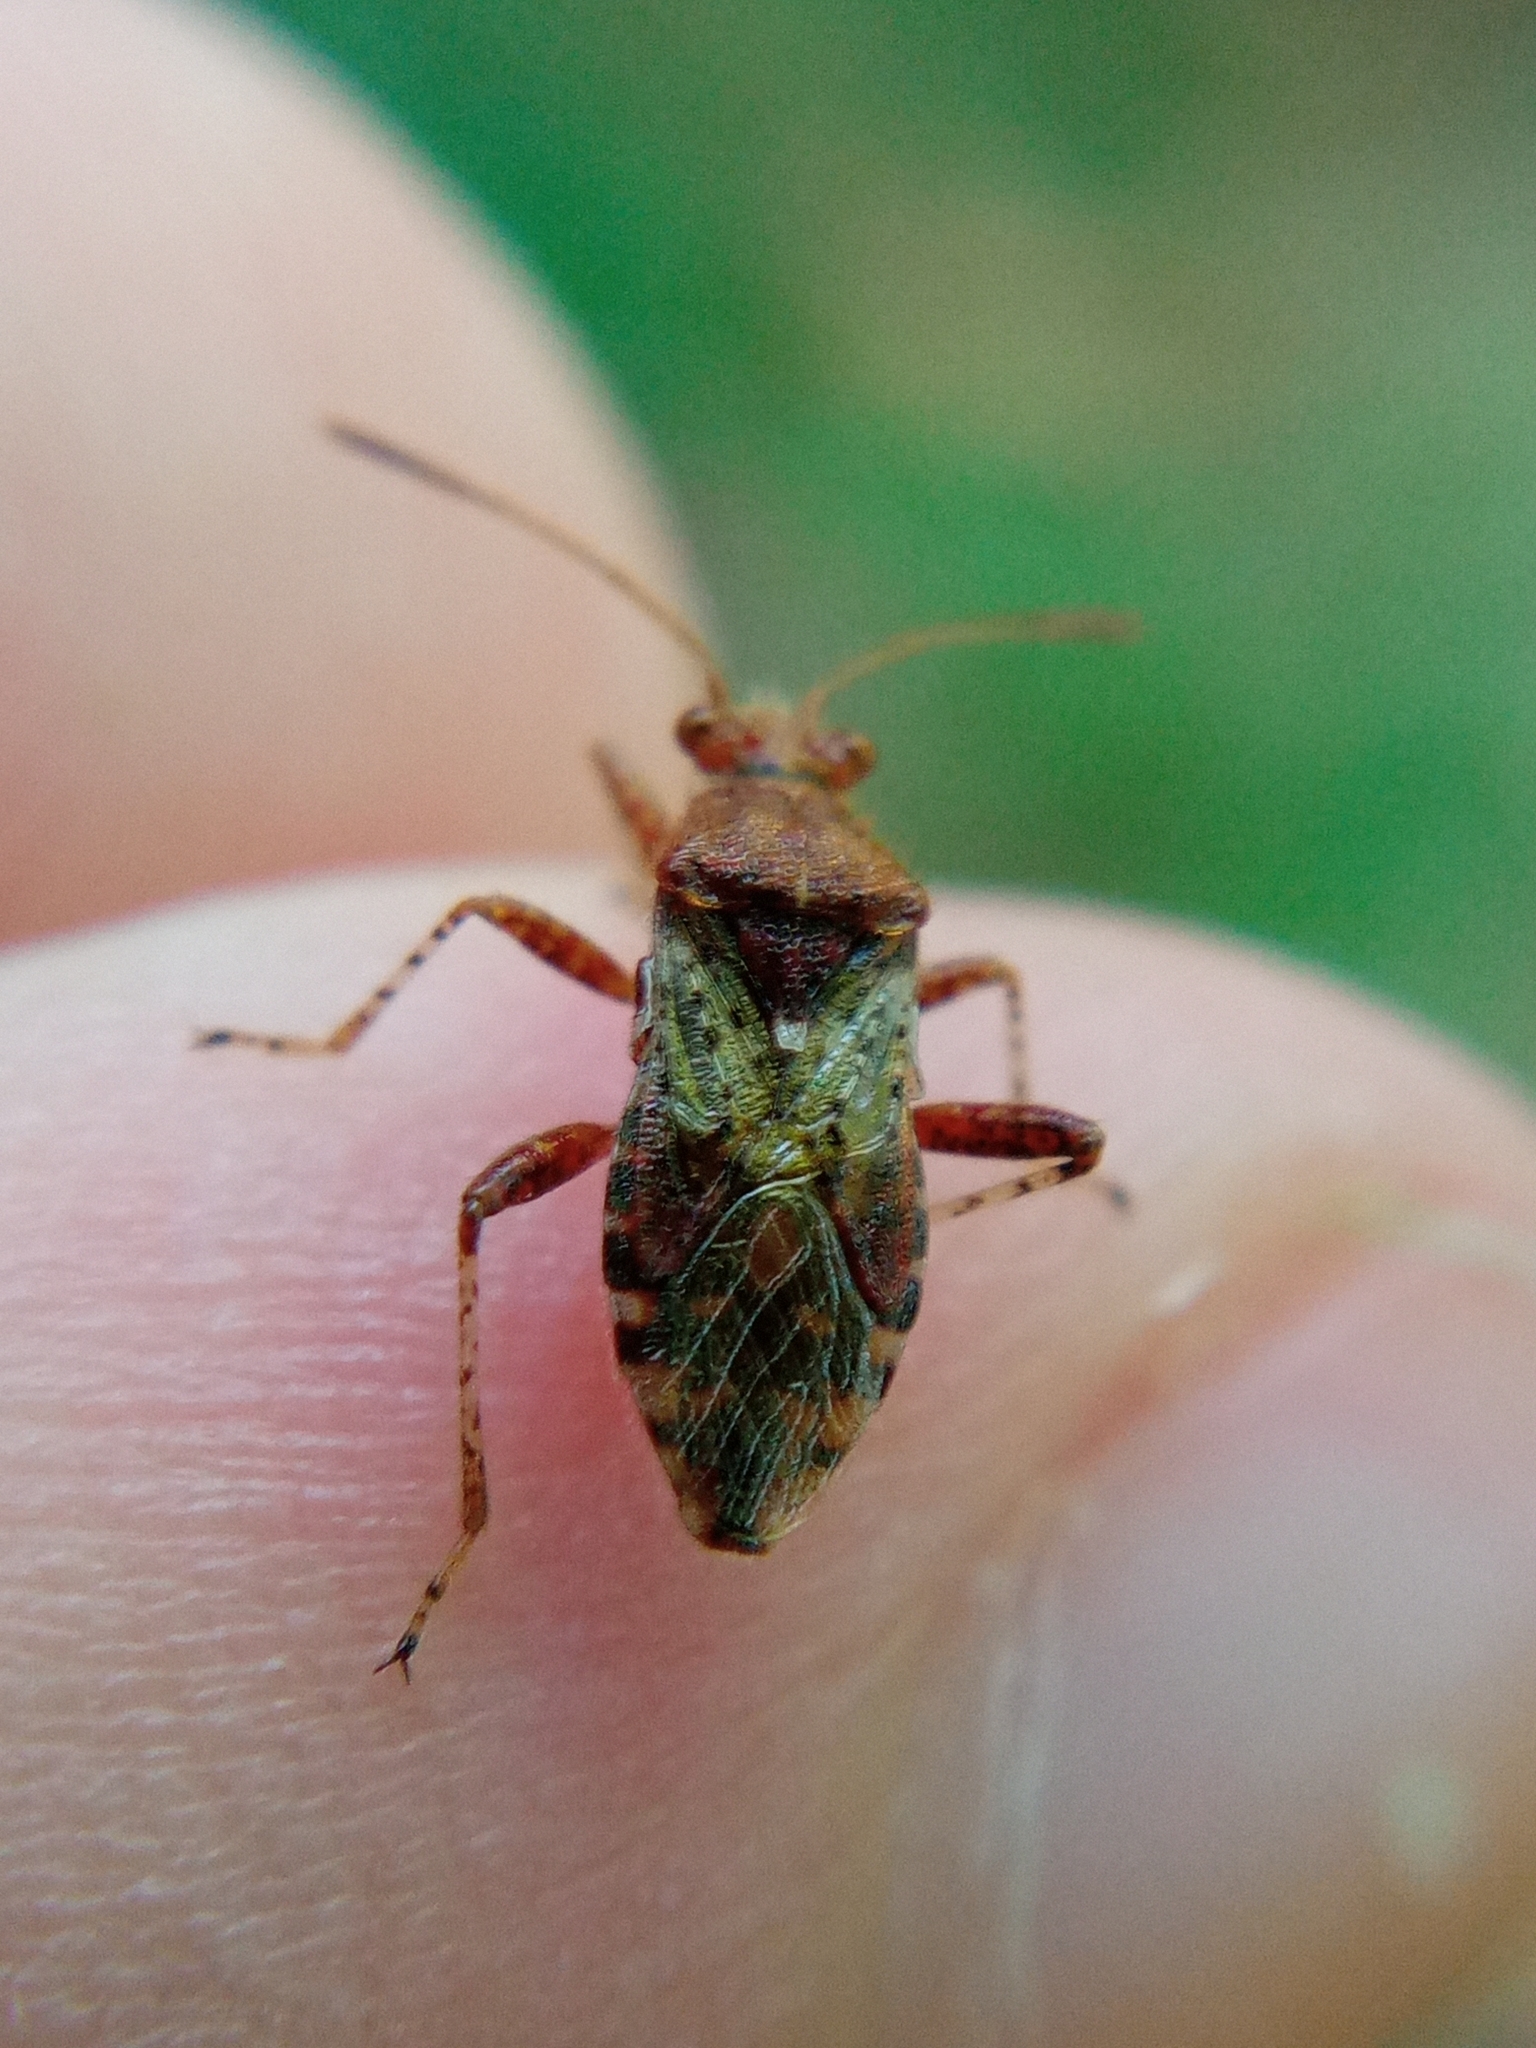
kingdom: Animalia
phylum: Arthropoda
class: Insecta
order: Hemiptera
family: Rhopalidae
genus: Rhopalus
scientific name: Rhopalus subrufus
